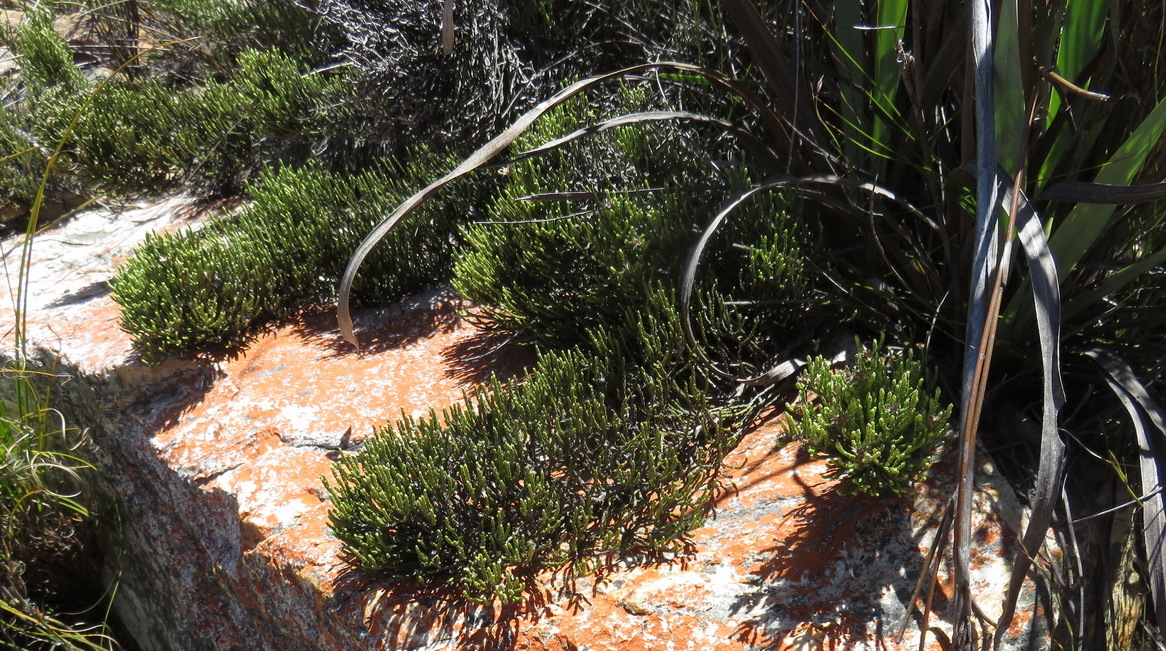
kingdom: Plantae
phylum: Tracheophyta
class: Magnoliopsida
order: Asterales
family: Asteraceae
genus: Dolichothrix
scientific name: Dolichothrix ericoides
